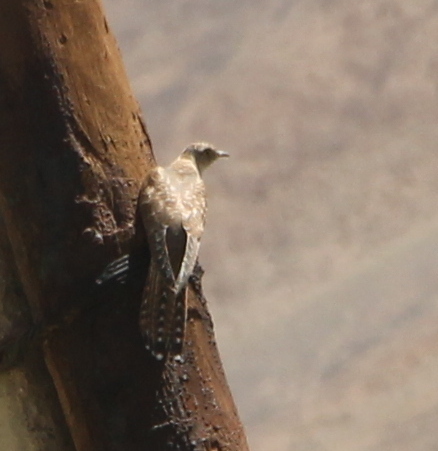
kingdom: Animalia
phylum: Chordata
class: Aves
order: Cuculiformes
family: Cuculidae
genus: Cuculus
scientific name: Cuculus canorus
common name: Common cuckoo
